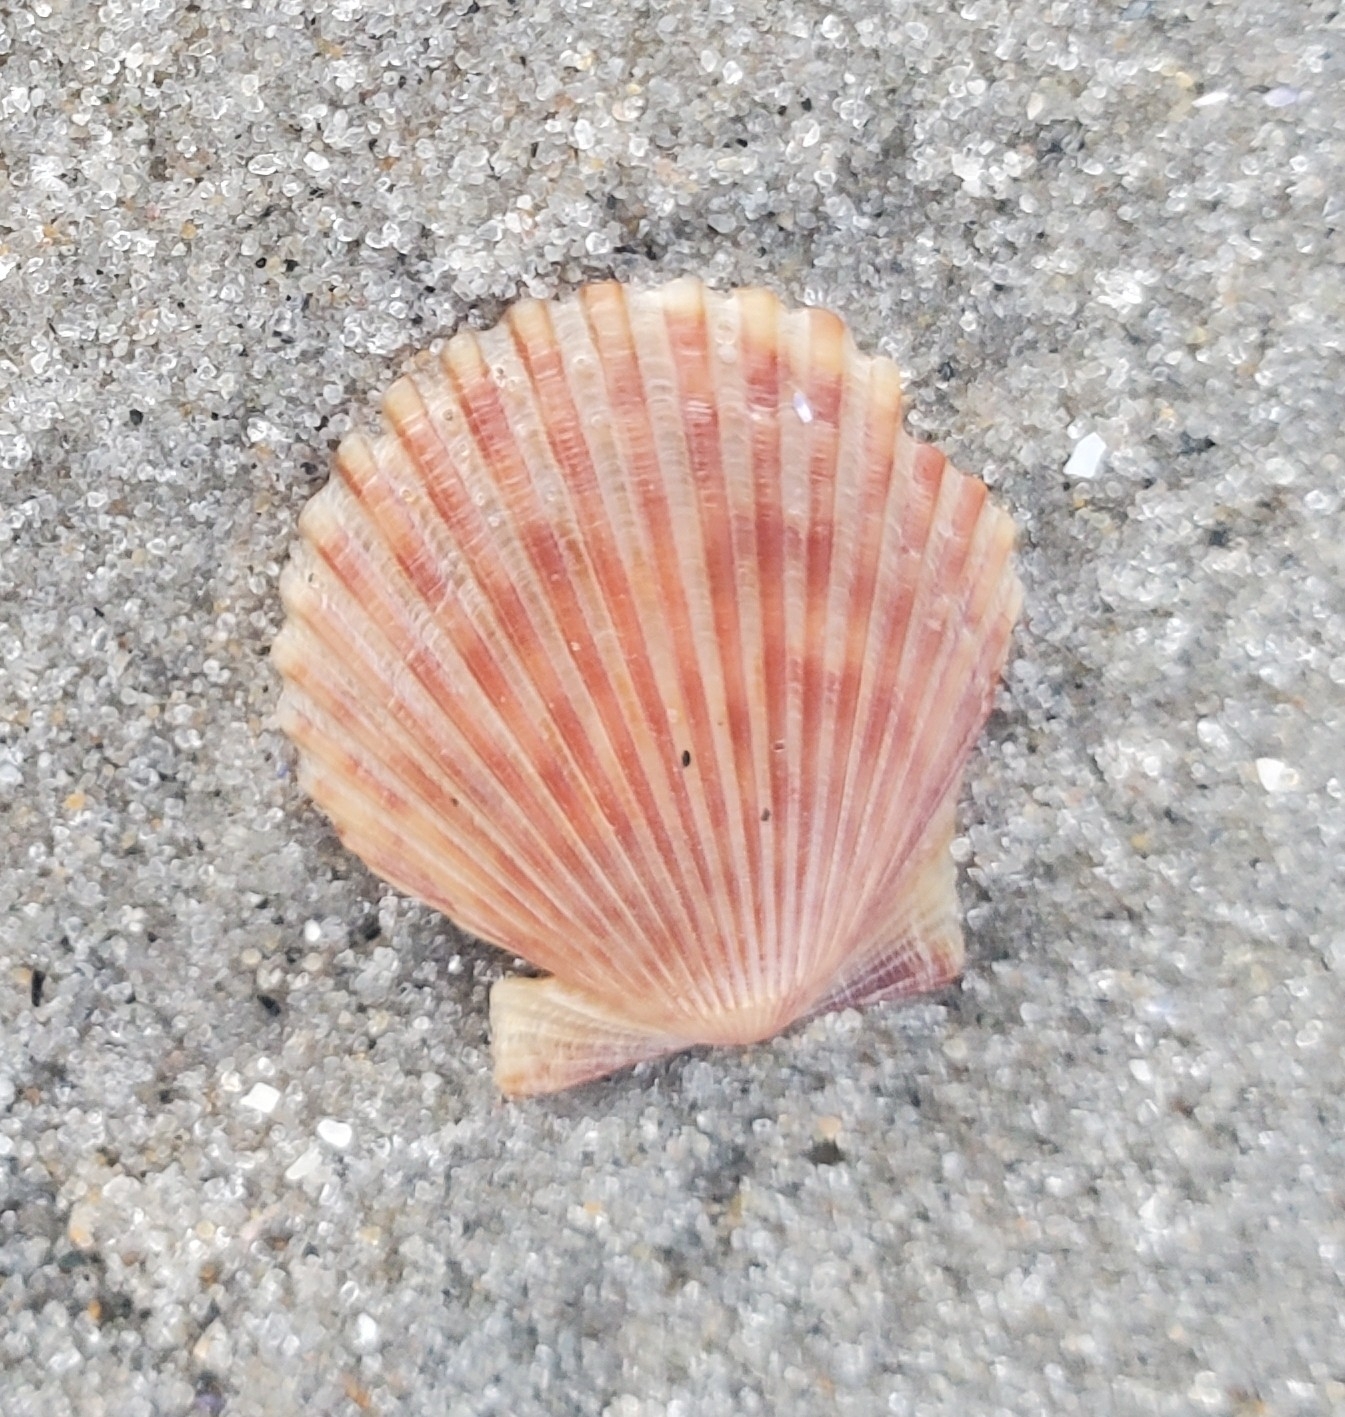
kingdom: Animalia
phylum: Mollusca
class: Bivalvia
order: Pectinida
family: Pectinidae
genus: Argopecten
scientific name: Argopecten irradians
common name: Atlantic bay scallop
